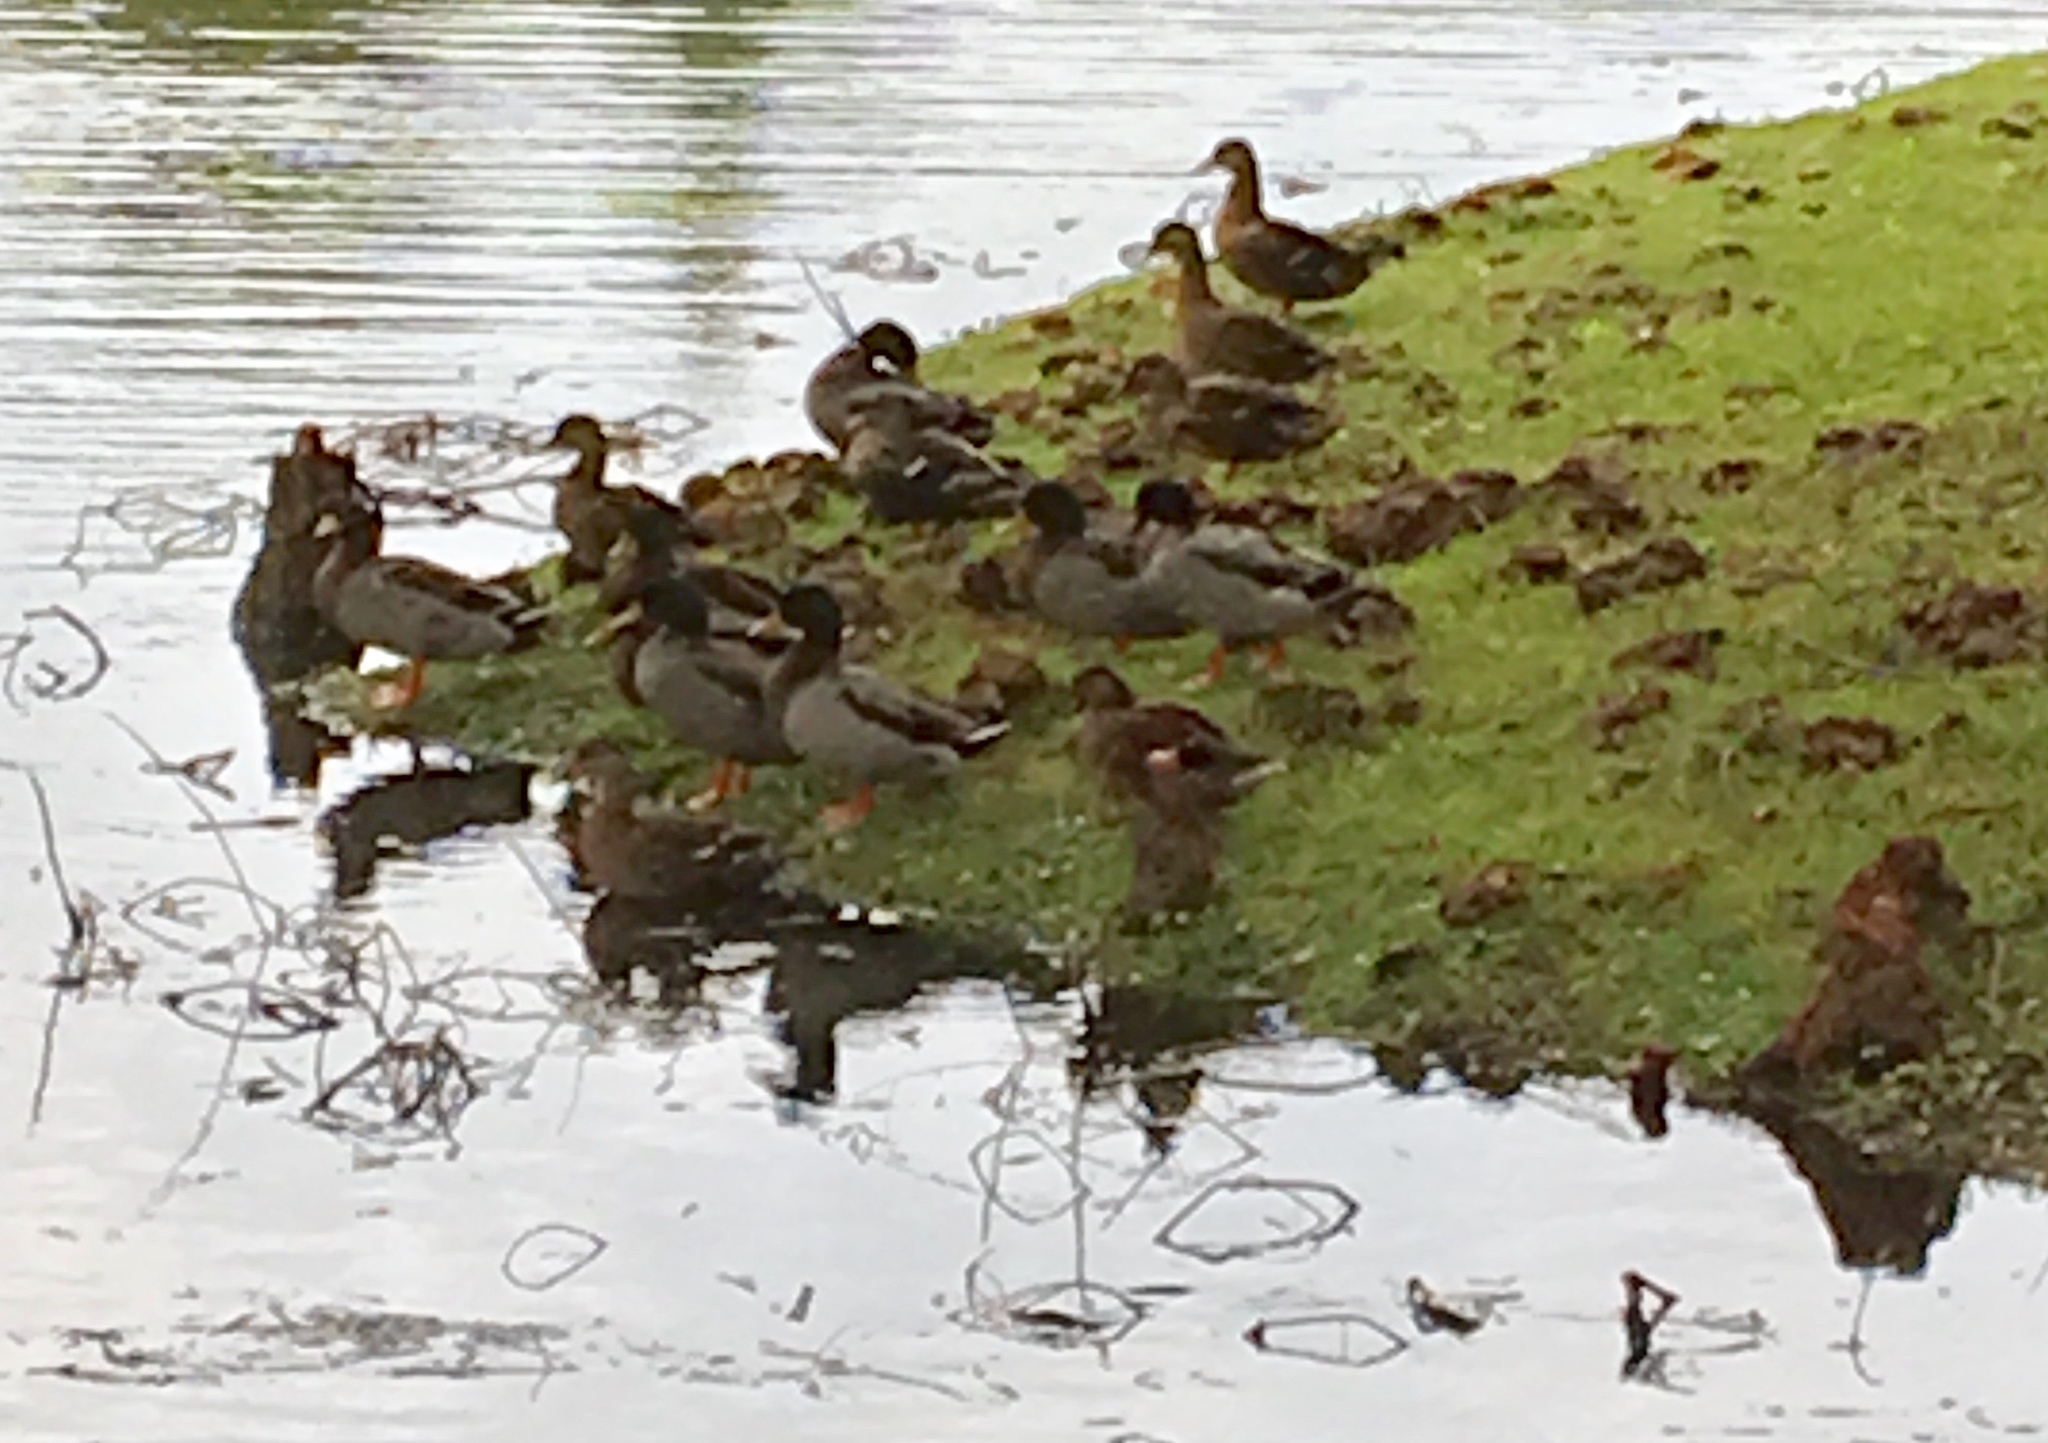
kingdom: Animalia
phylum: Chordata
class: Aves
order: Anseriformes
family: Anatidae
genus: Anas
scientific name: Anas platyrhynchos
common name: Mallard
